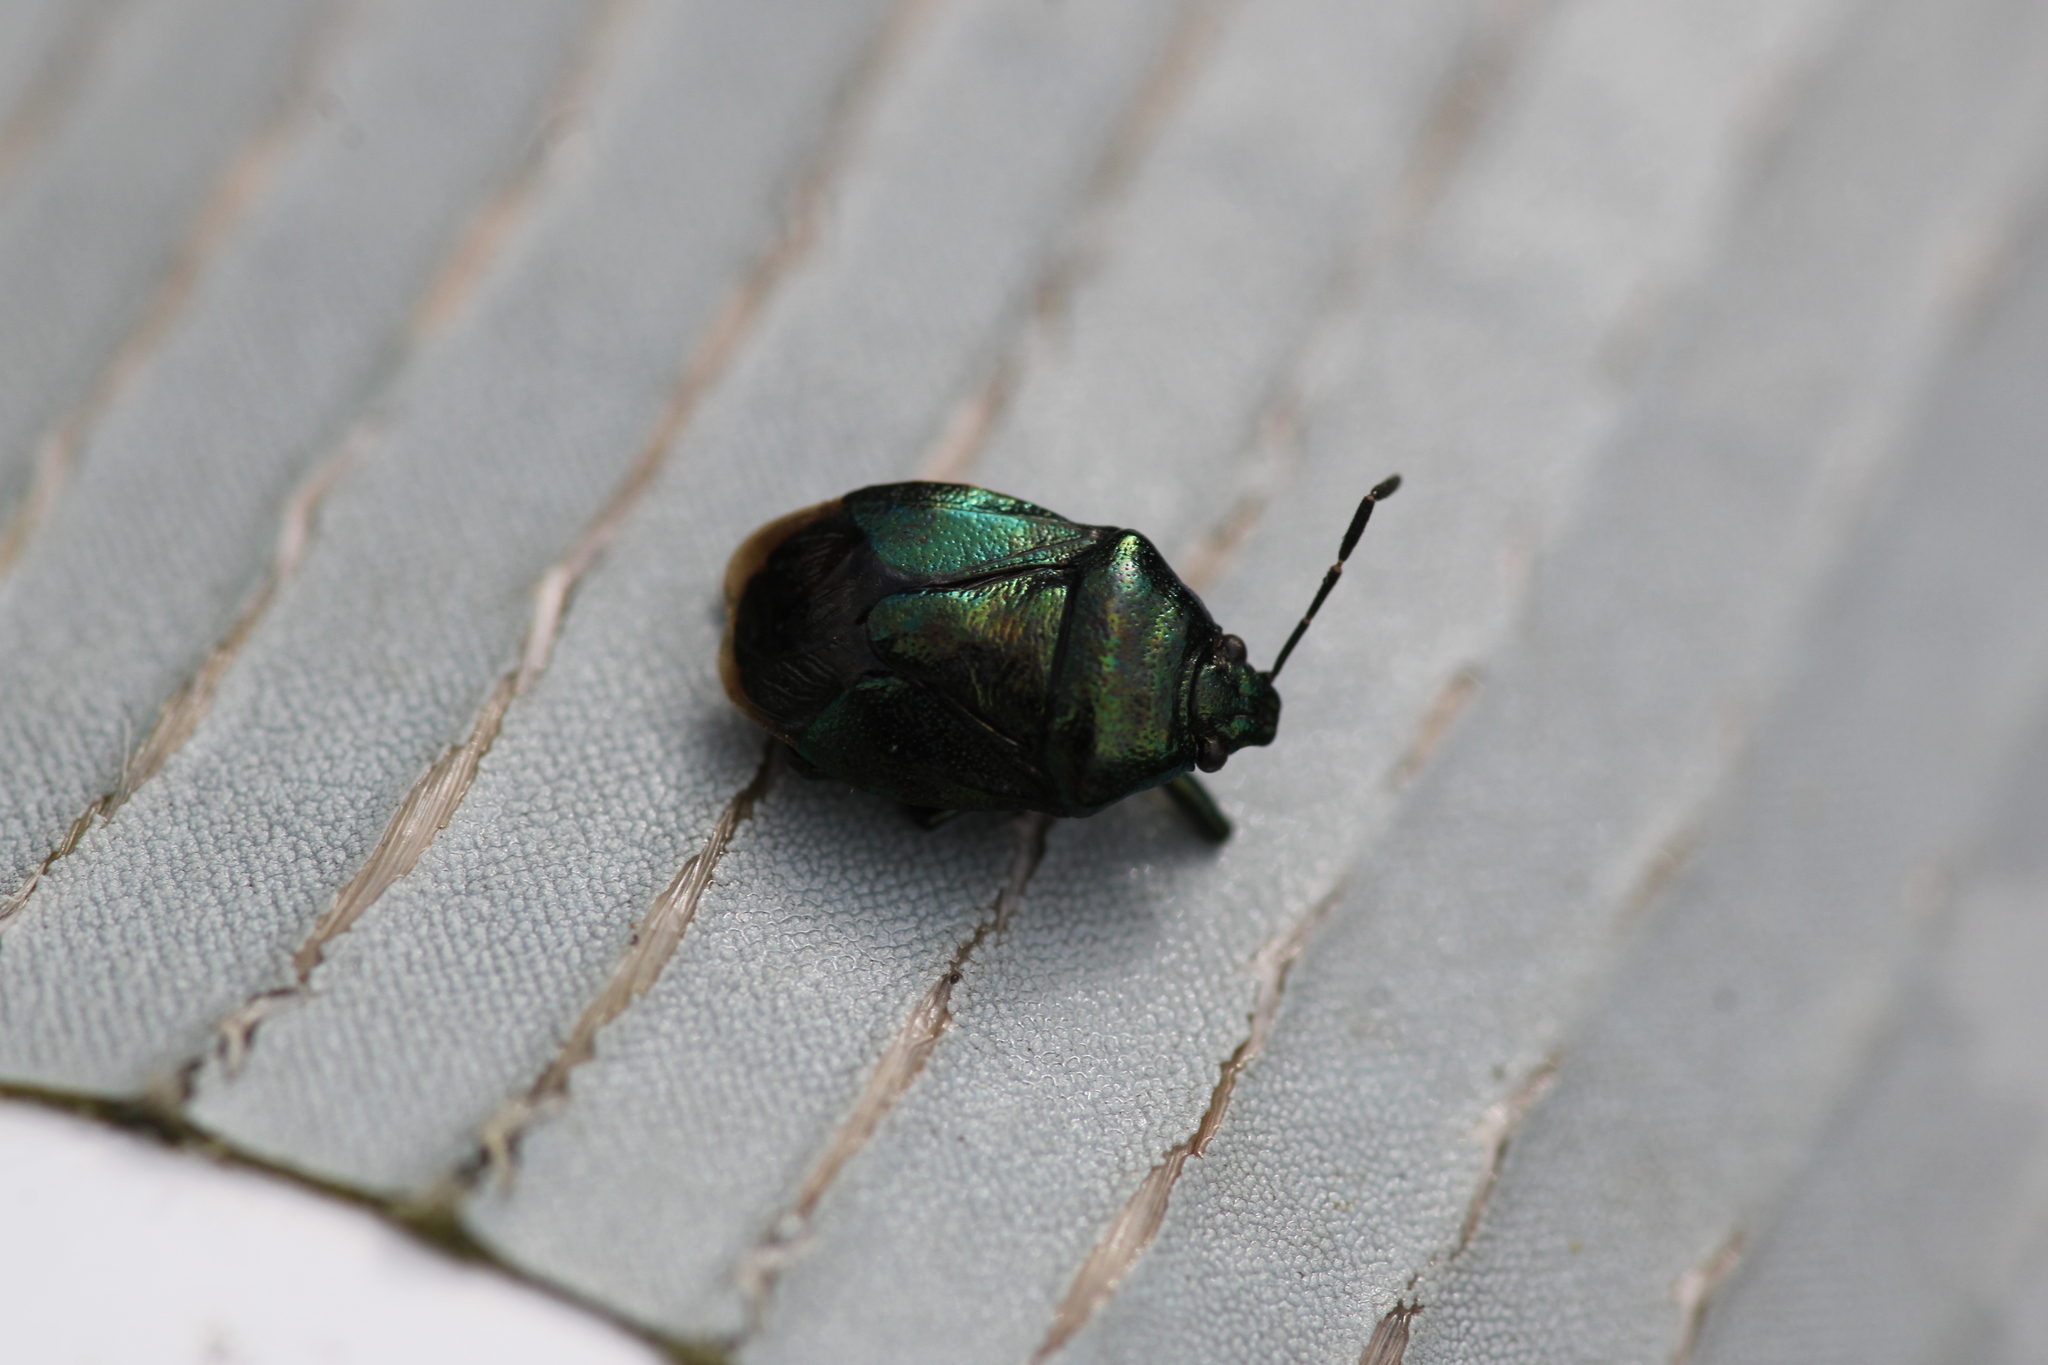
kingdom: Animalia
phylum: Arthropoda
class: Insecta
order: Hemiptera
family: Pentatomidae
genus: Zicrona
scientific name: Zicrona caerulea
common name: Blue shieldbug
